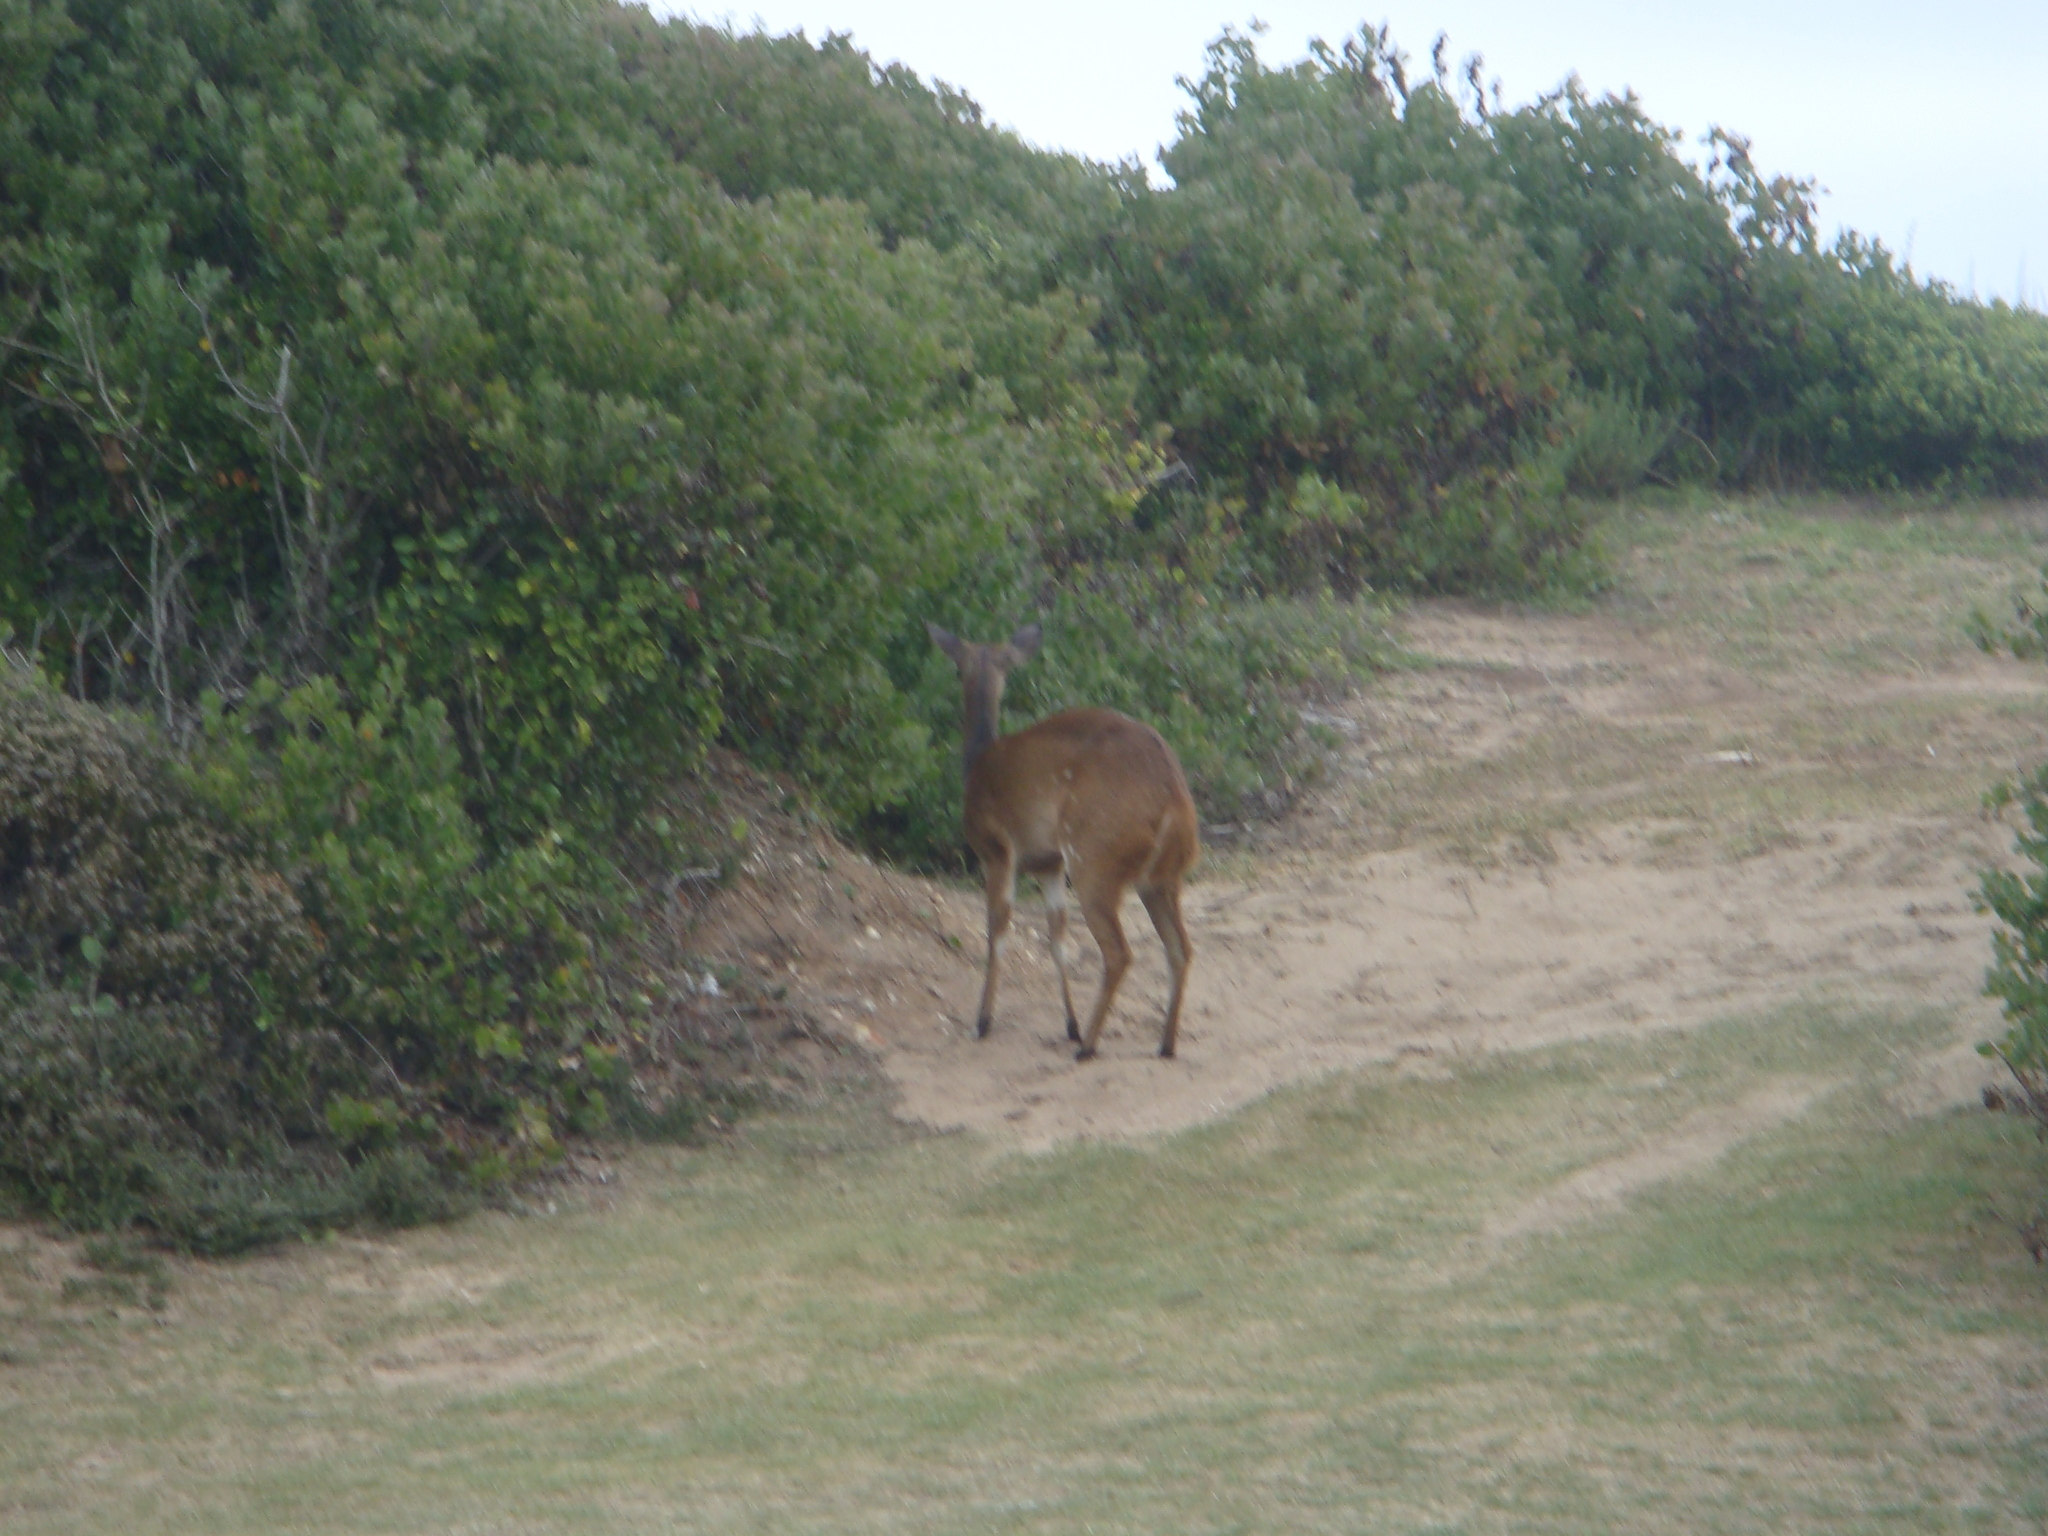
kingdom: Animalia
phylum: Chordata
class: Mammalia
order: Artiodactyla
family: Bovidae
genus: Tragelaphus
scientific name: Tragelaphus scriptus
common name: Bushbuck
